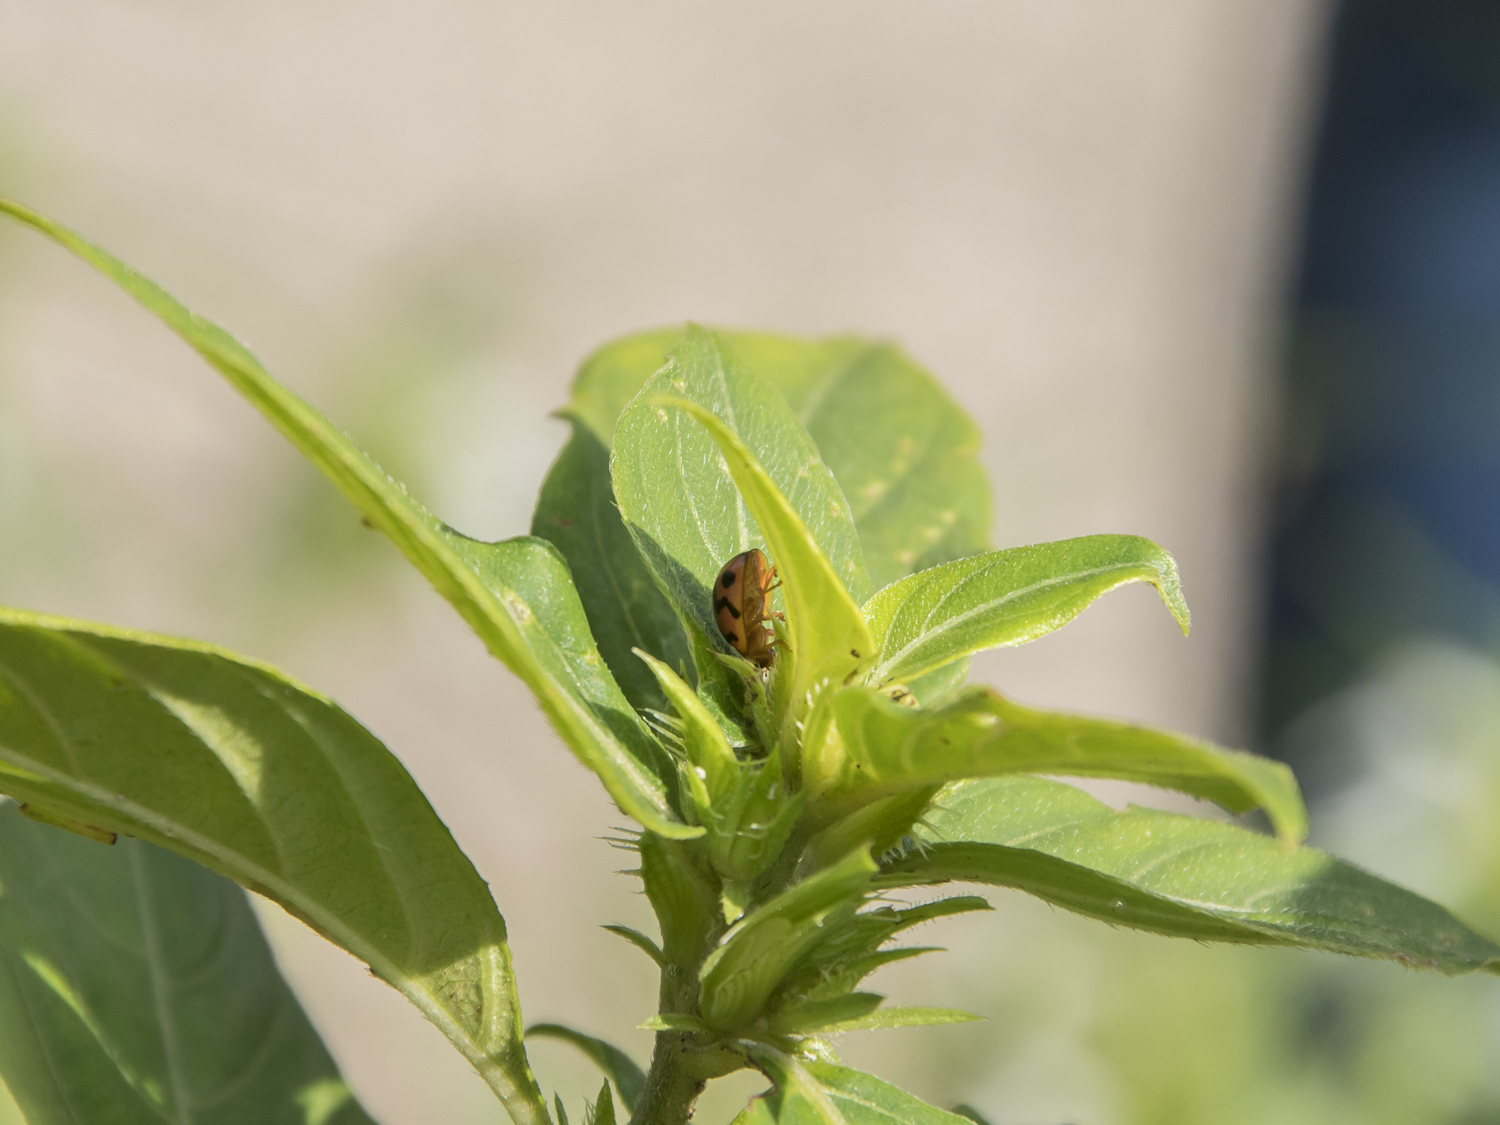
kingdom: Animalia
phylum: Arthropoda
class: Insecta
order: Coleoptera
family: Coccinellidae
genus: Cheilomenes
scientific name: Cheilomenes sexmaculata
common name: Ladybird beetle
